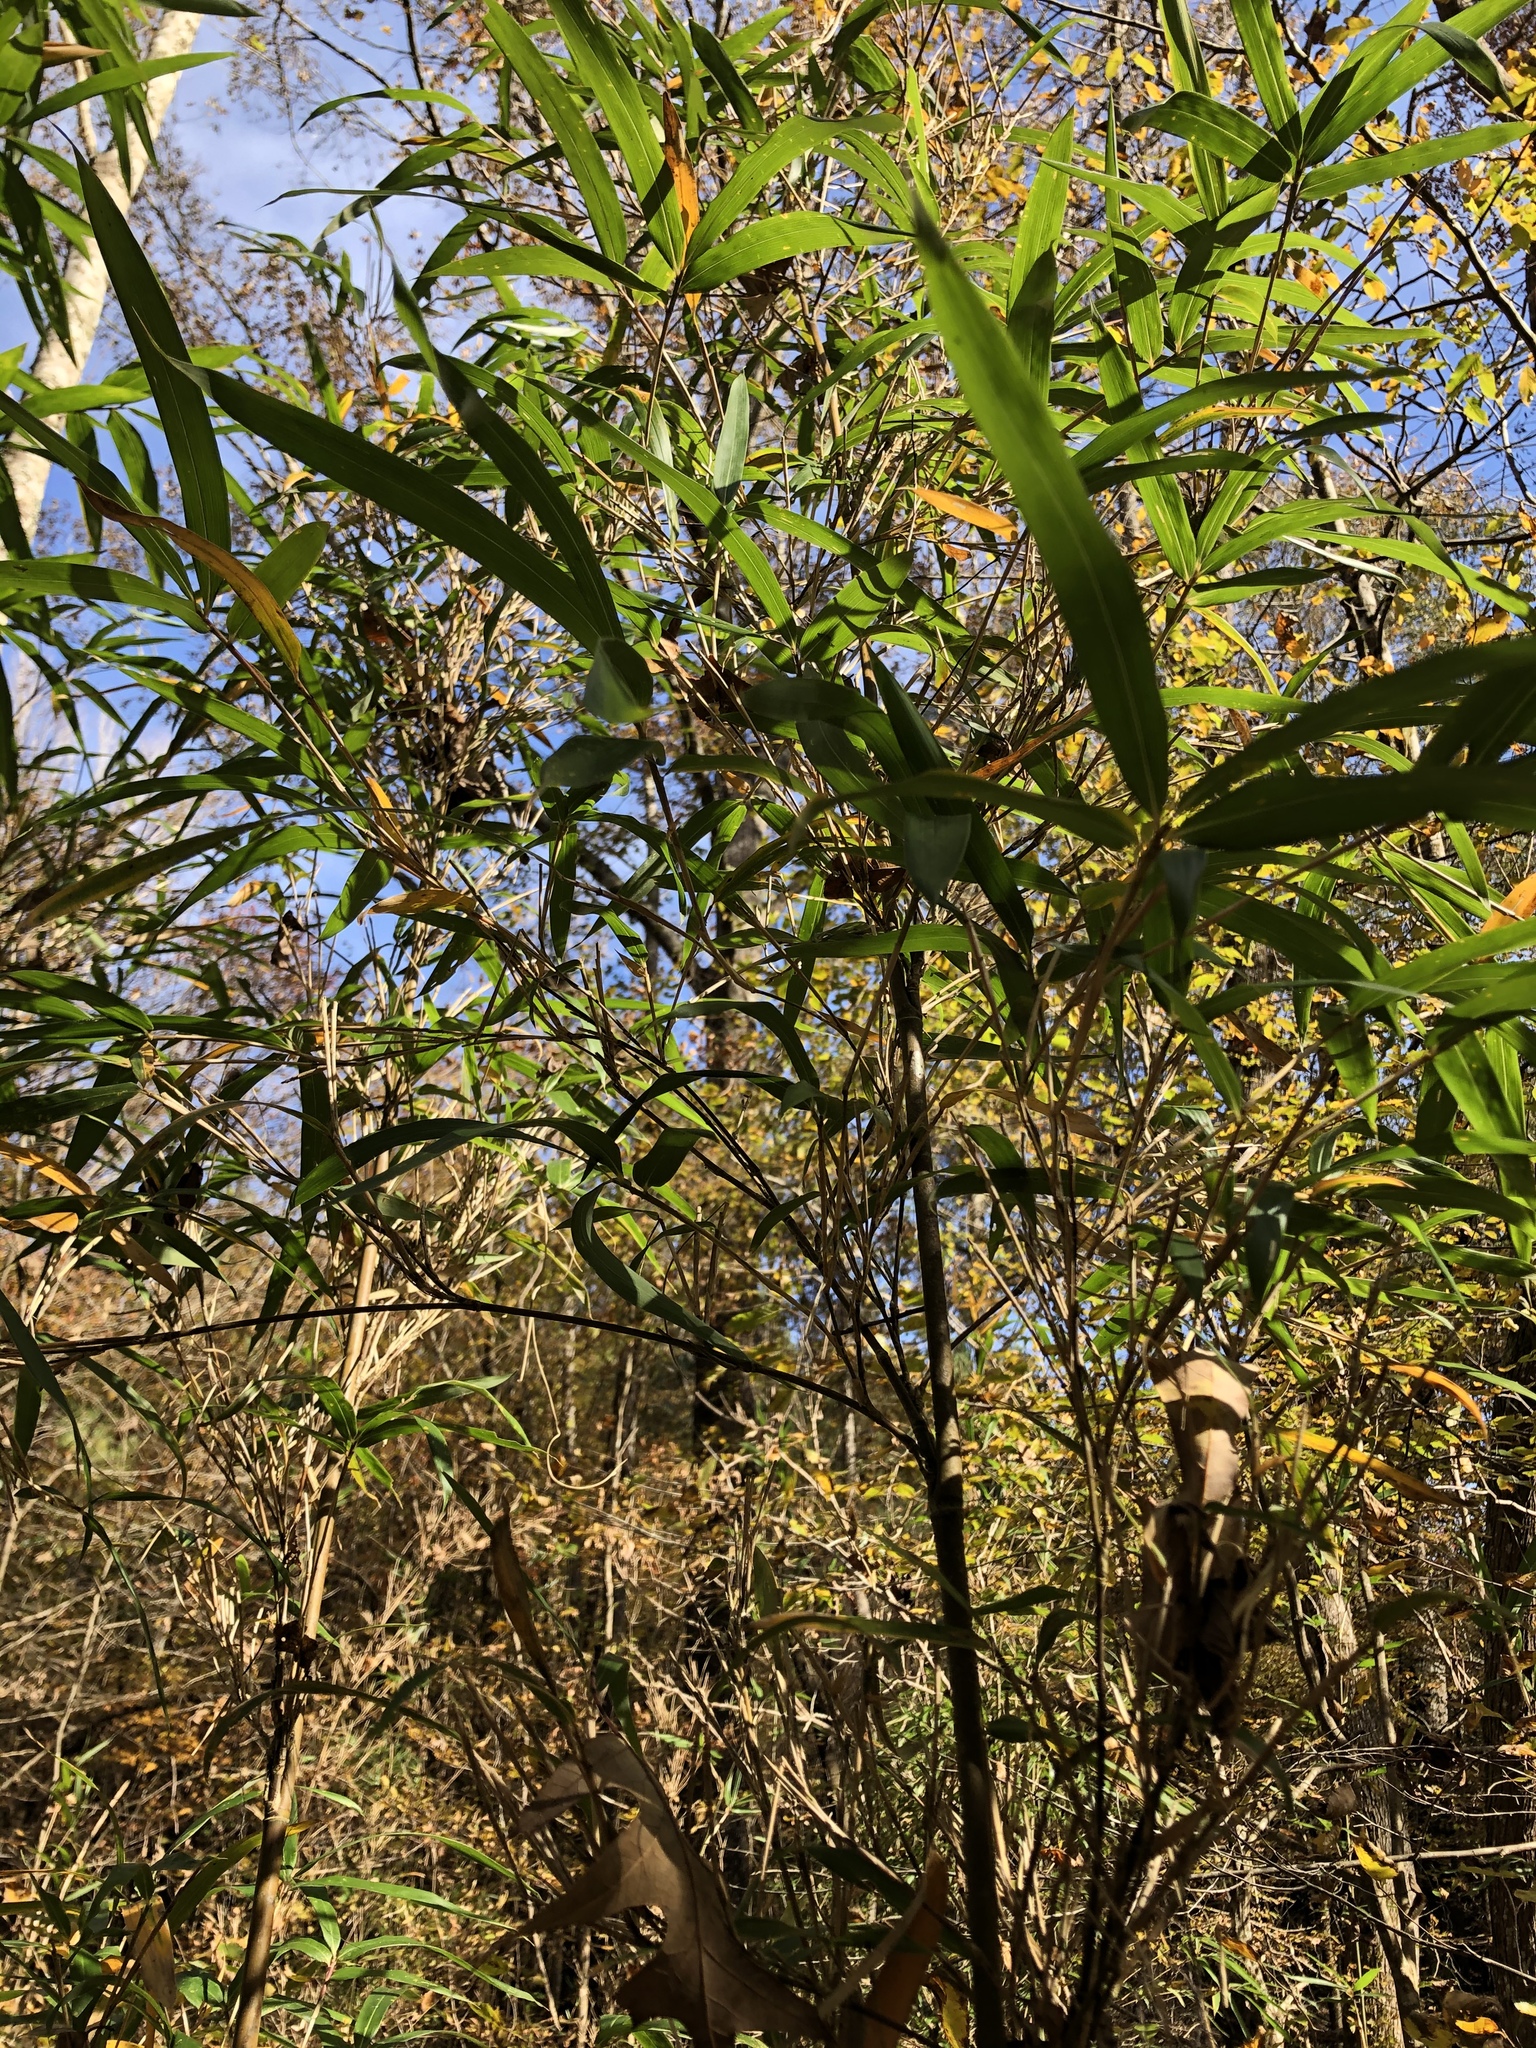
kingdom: Plantae
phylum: Tracheophyta
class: Liliopsida
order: Poales
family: Poaceae
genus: Arundinaria
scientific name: Arundinaria gigantea
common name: Giant cane
